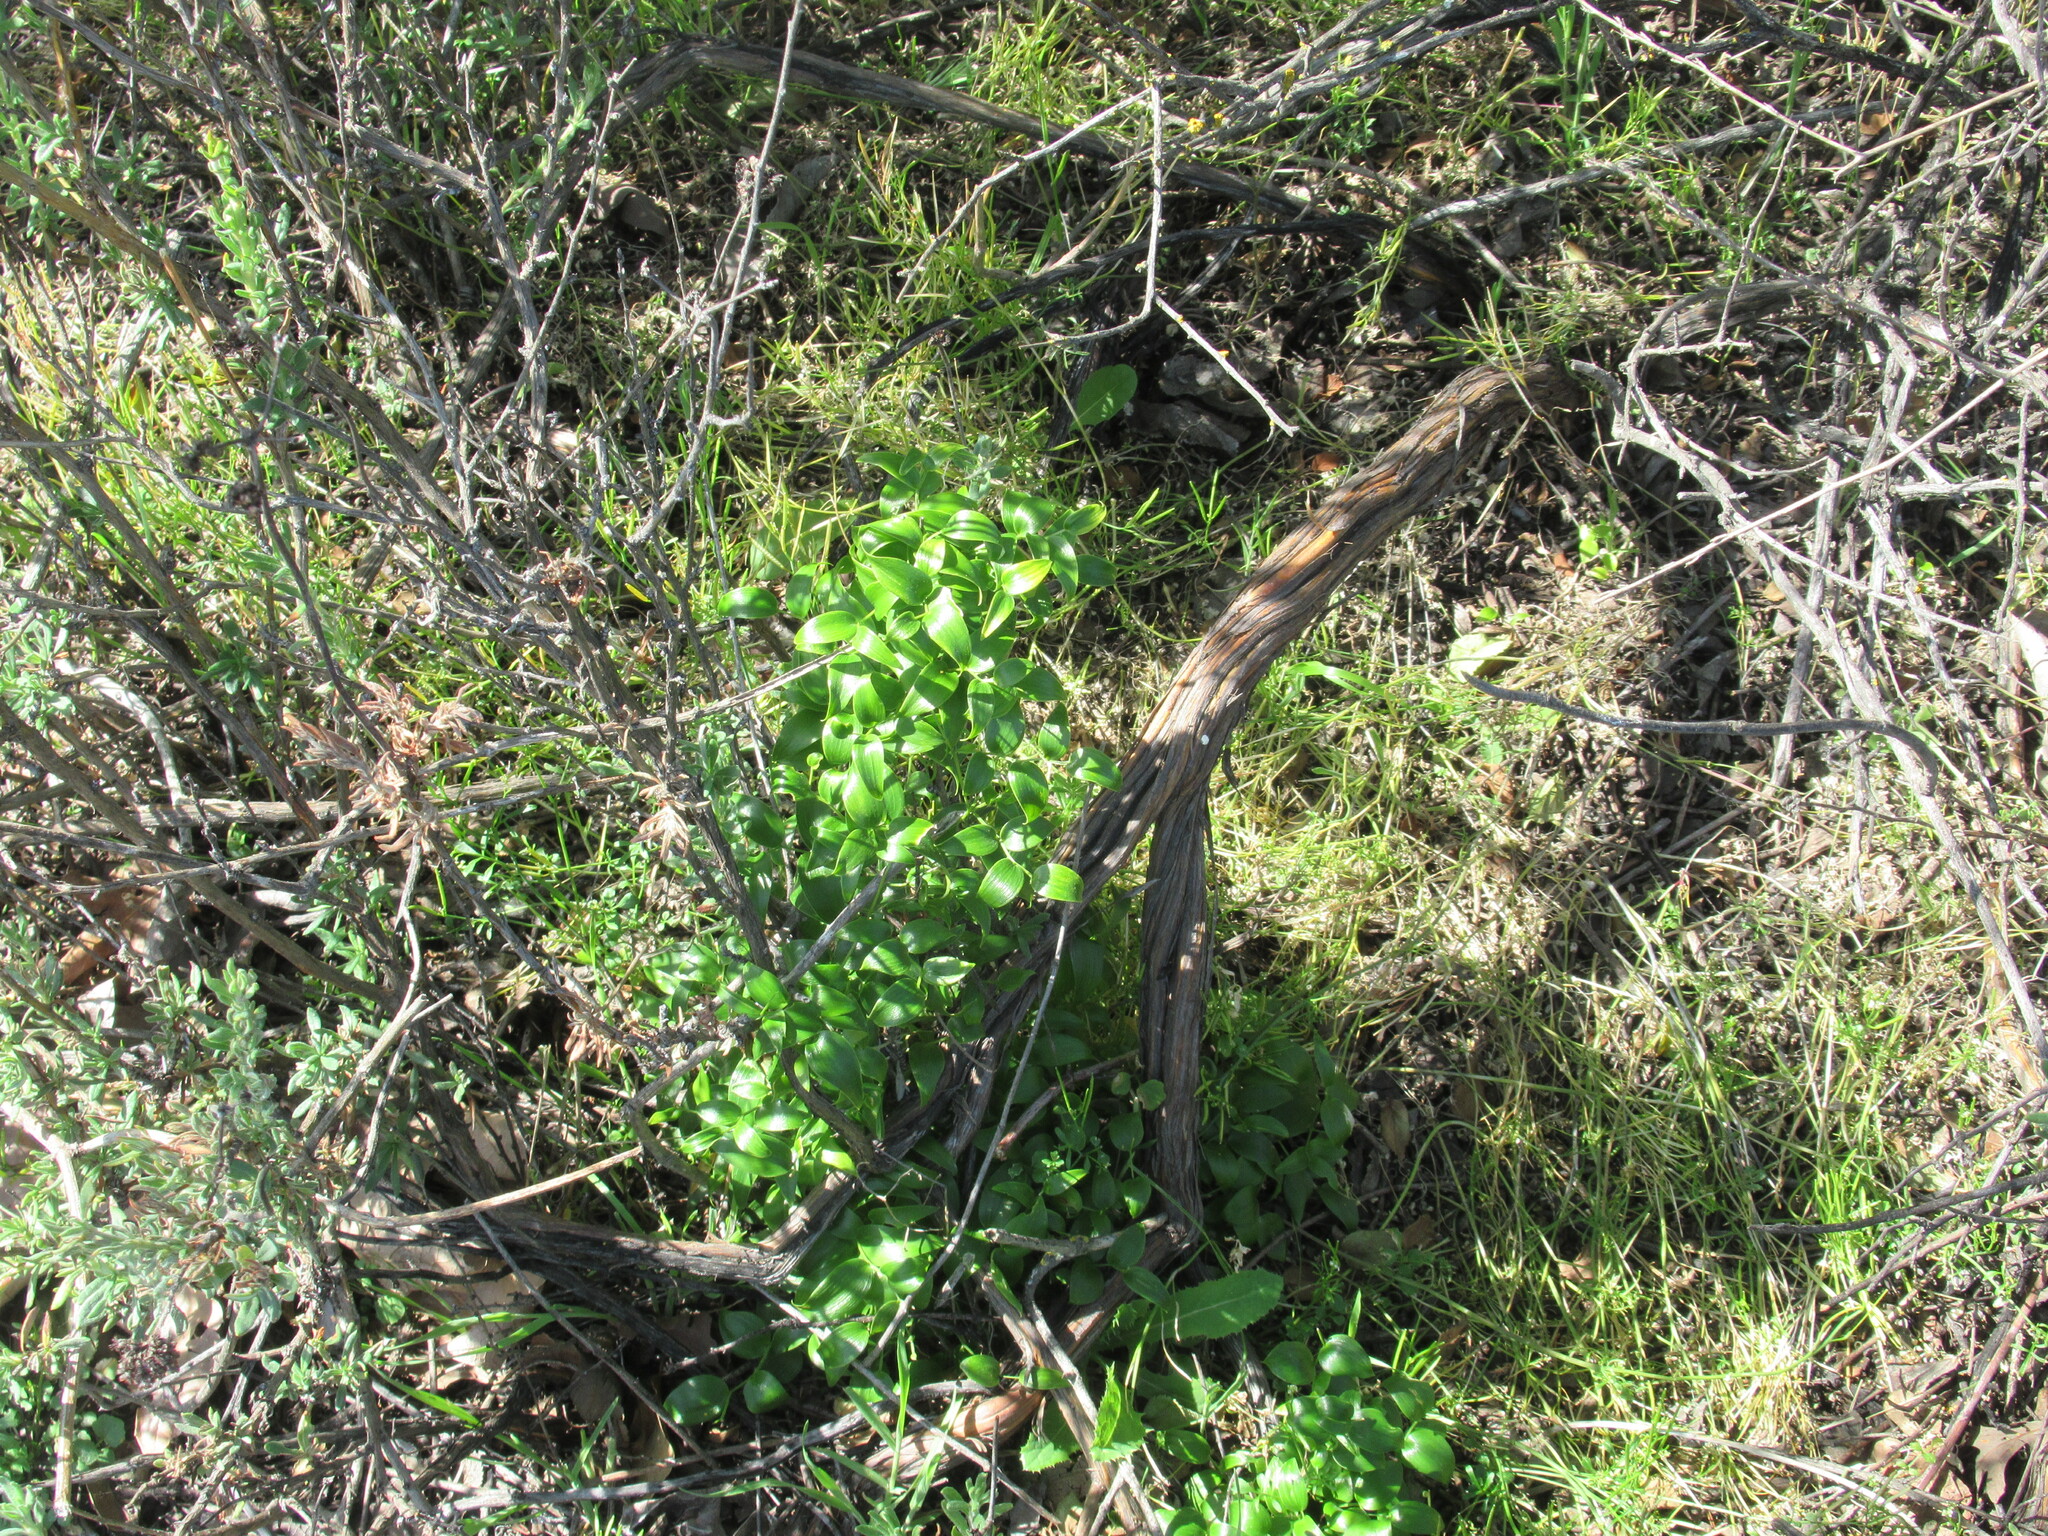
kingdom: Plantae
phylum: Tracheophyta
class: Liliopsida
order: Asparagales
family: Asparagaceae
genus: Asparagus
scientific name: Asparagus asparagoides
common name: African asparagus fern
